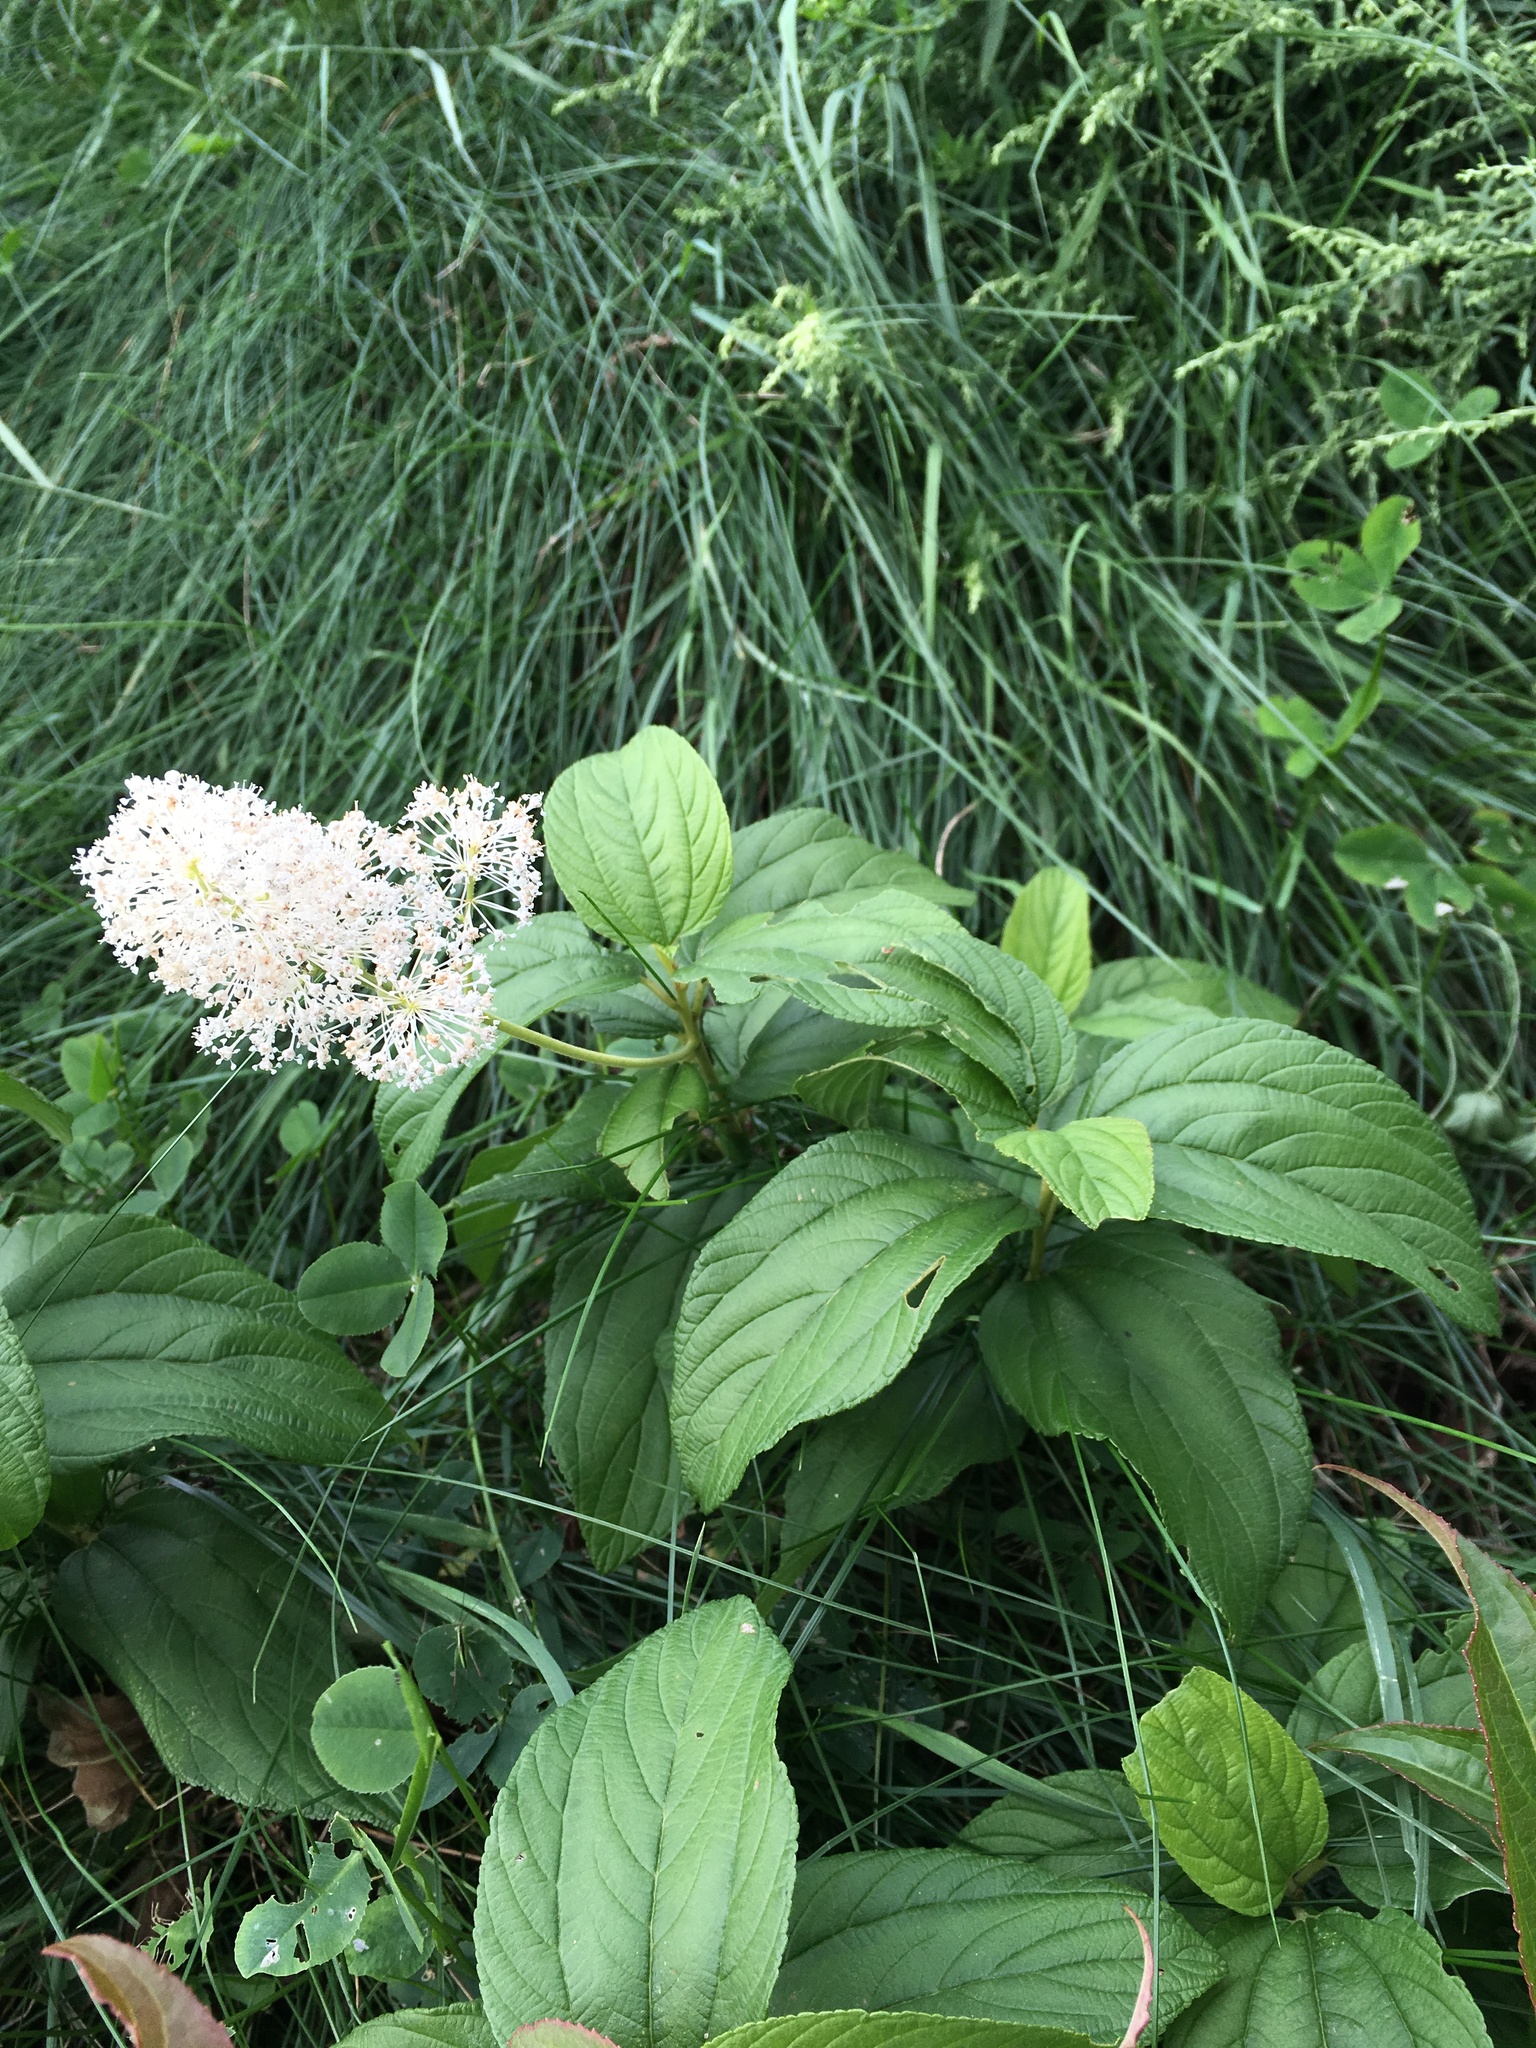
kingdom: Plantae
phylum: Tracheophyta
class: Magnoliopsida
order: Rosales
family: Rhamnaceae
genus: Ceanothus
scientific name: Ceanothus americanus
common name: Redroot
